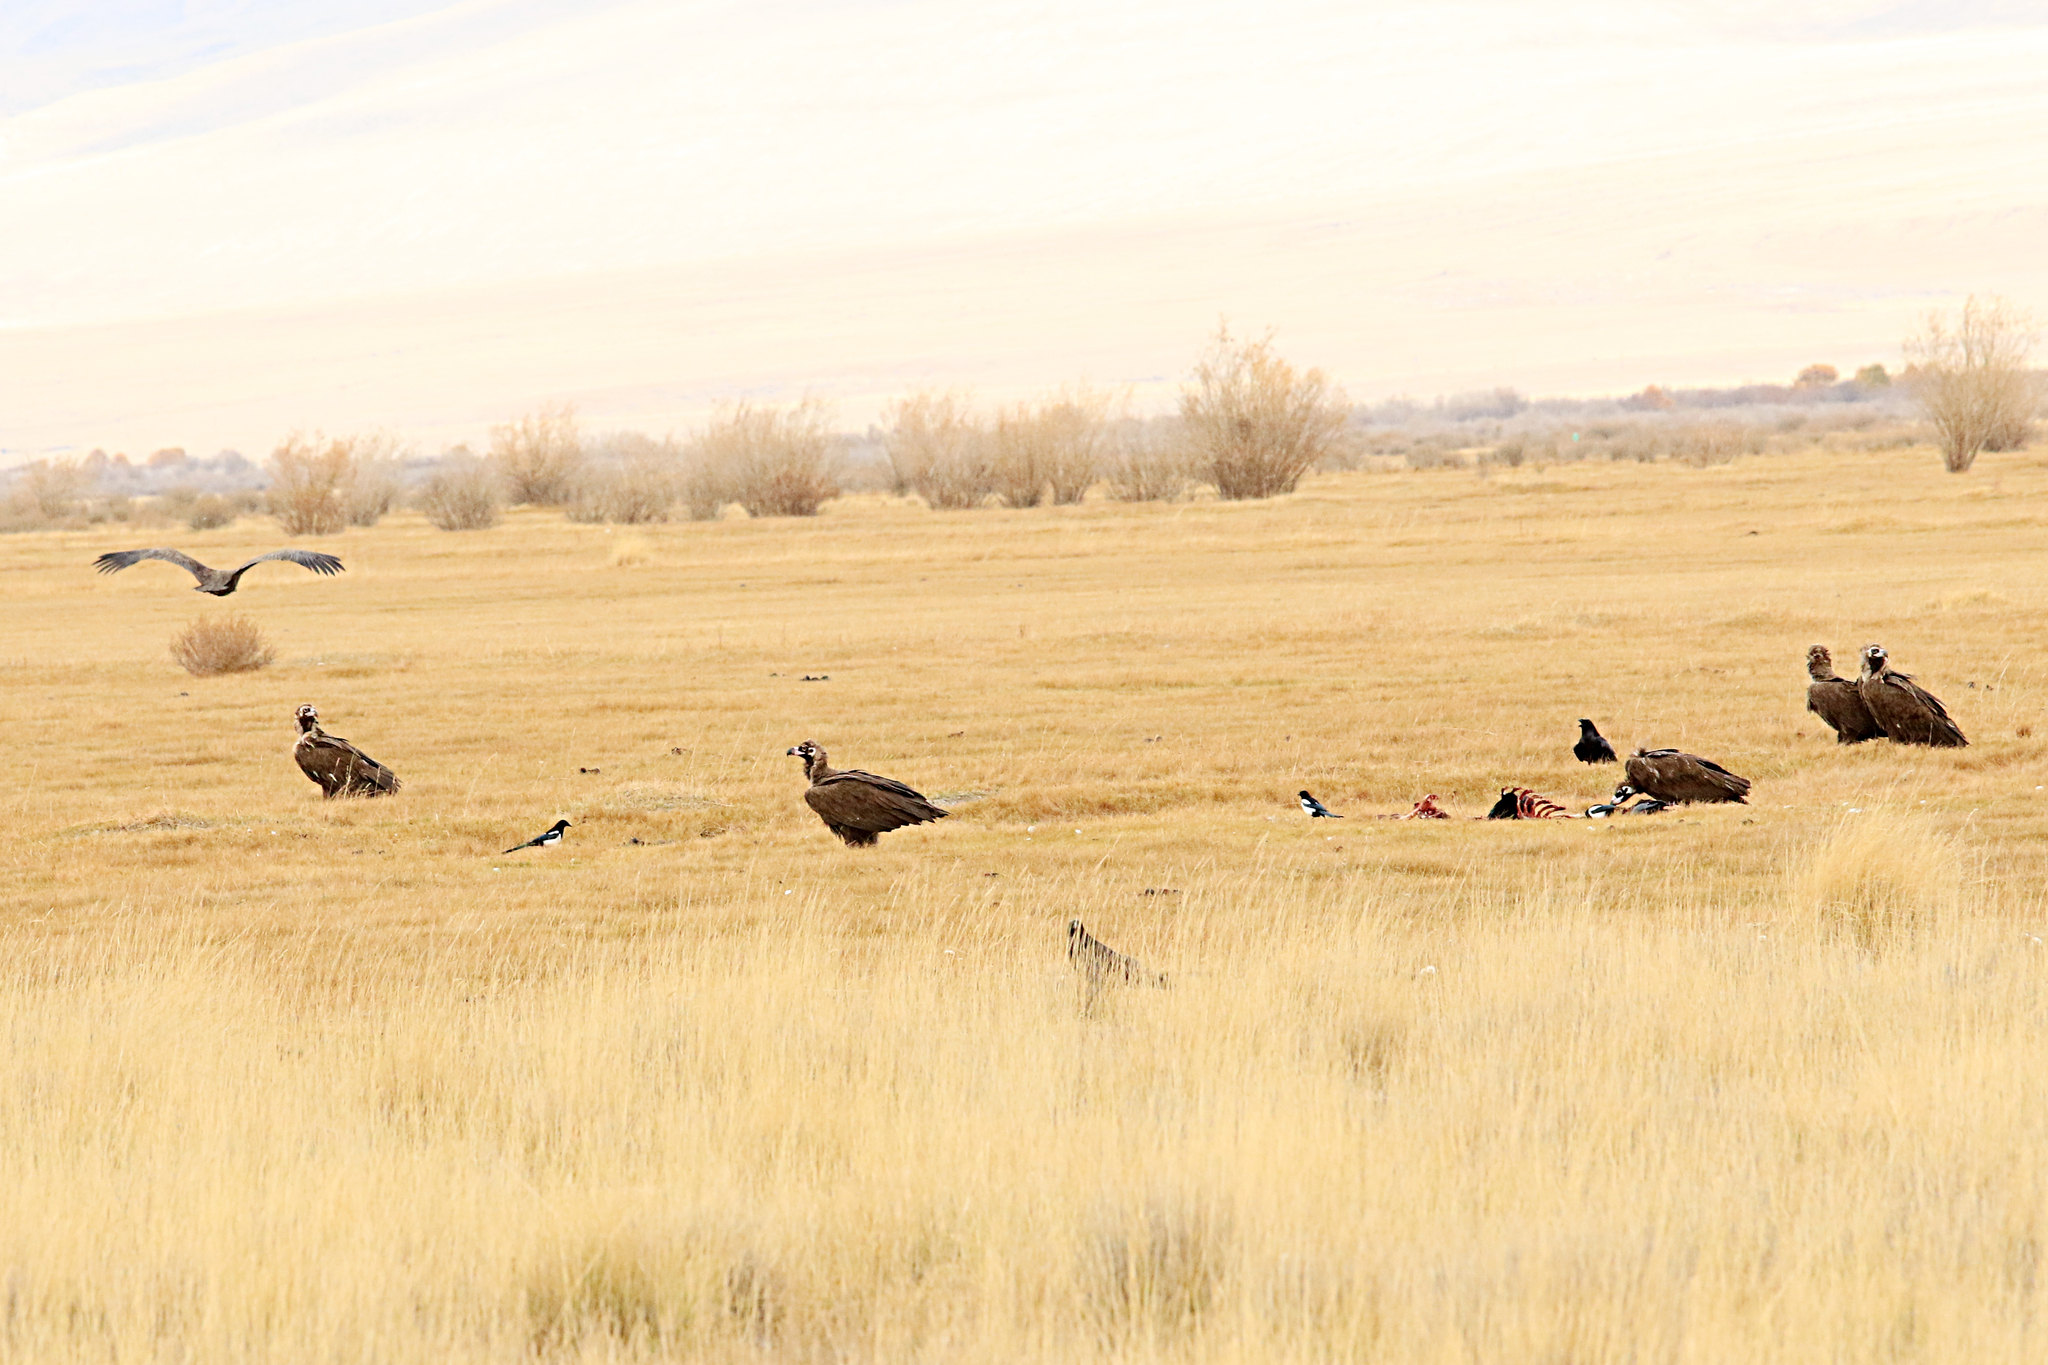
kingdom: Animalia
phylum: Chordata
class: Aves
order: Accipitriformes
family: Accipitridae
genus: Aegypius
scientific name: Aegypius monachus
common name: Cinereous vulture
